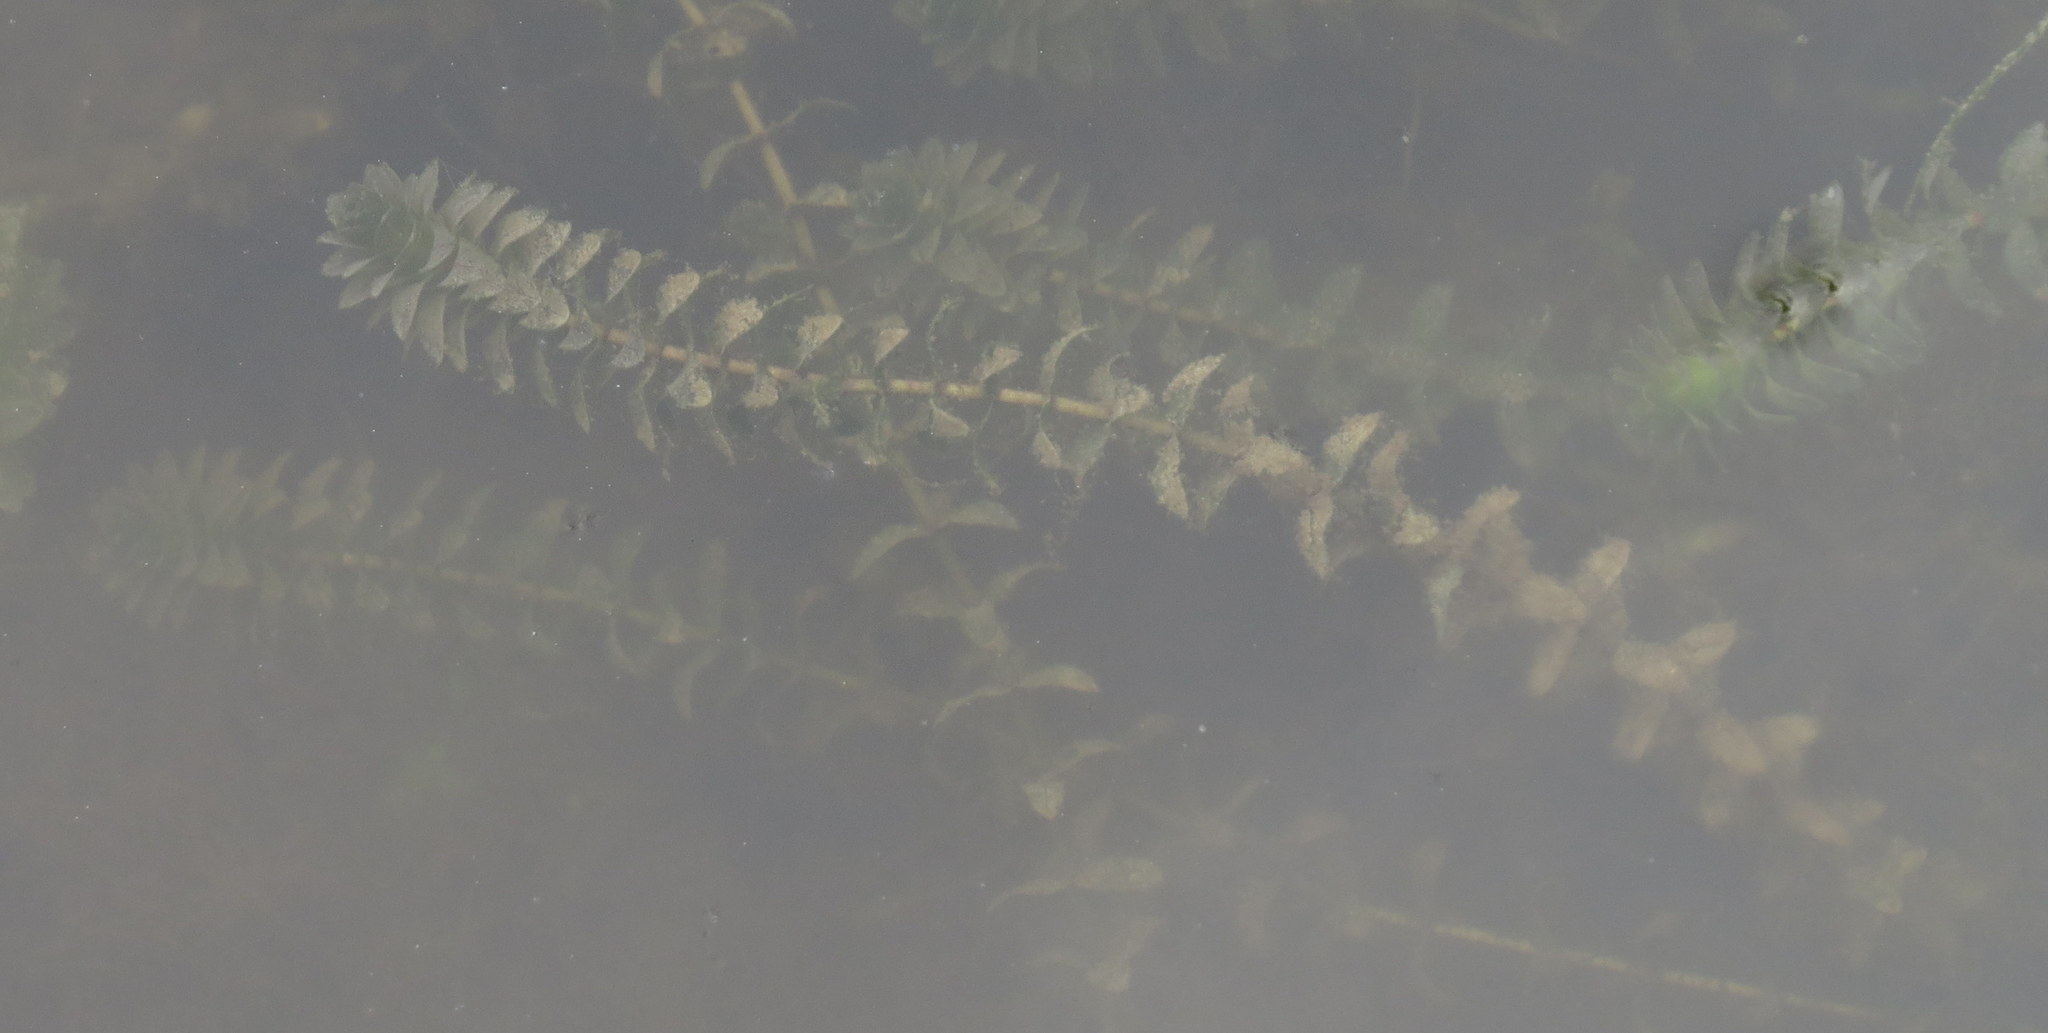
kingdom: Plantae
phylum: Tracheophyta
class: Liliopsida
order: Alismatales
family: Hydrocharitaceae
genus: Elodea
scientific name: Elodea canadensis
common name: Canadian waterweed
